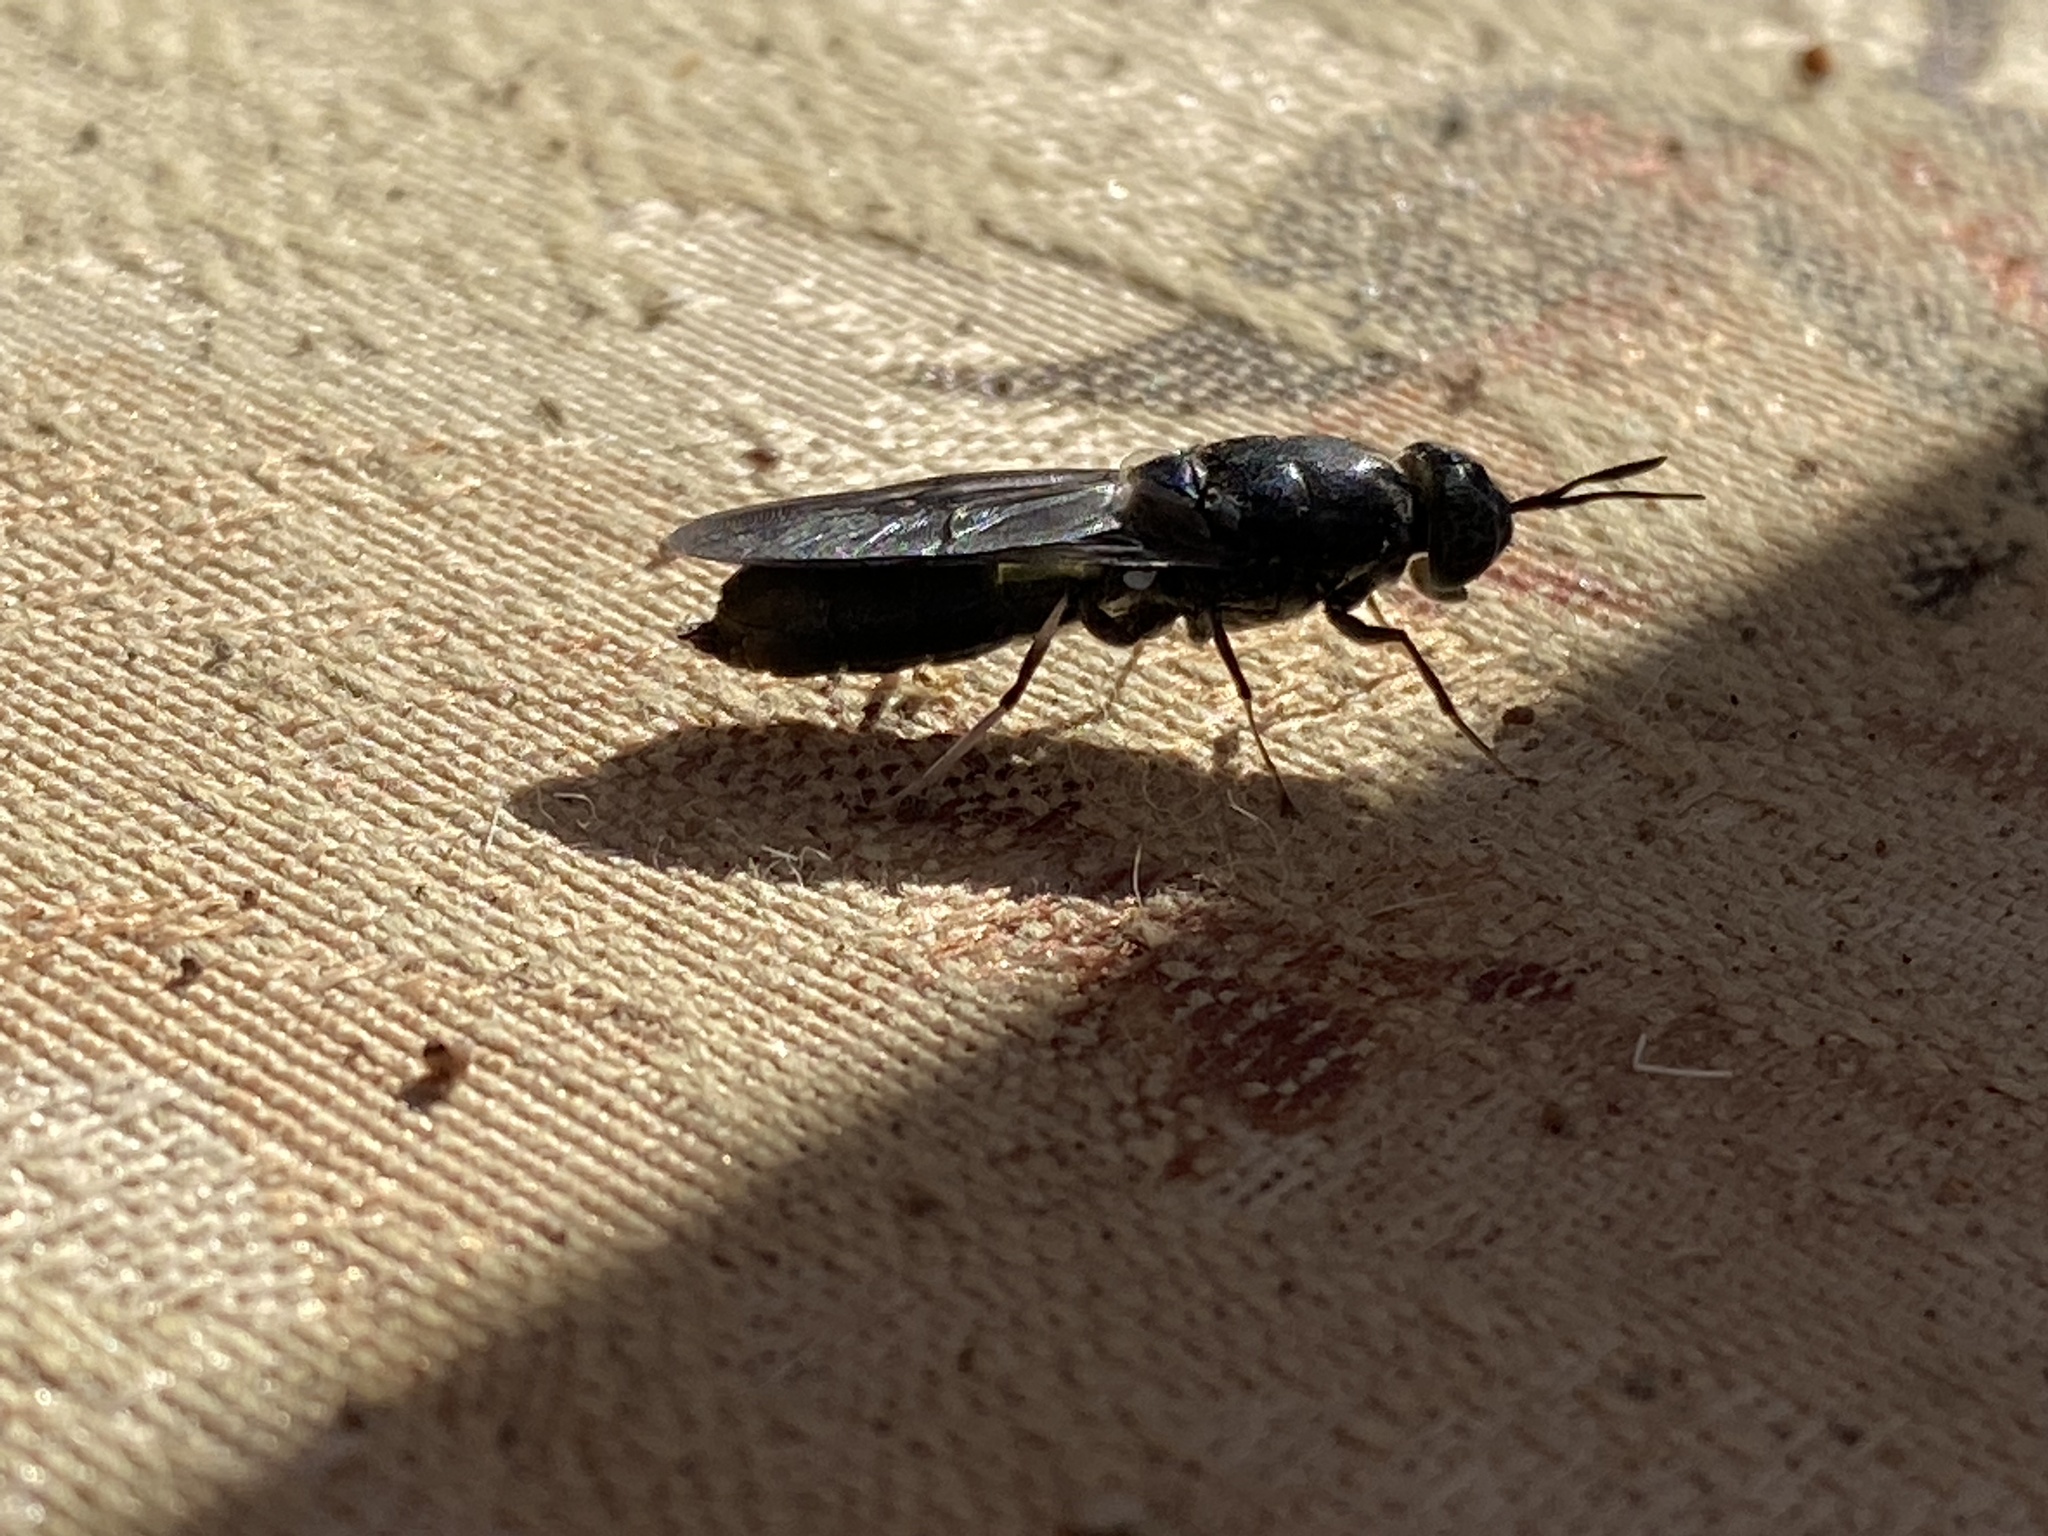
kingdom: Animalia
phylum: Arthropoda
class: Insecta
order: Diptera
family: Stratiomyidae
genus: Hermetia
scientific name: Hermetia illucens
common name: Black soldier fly
